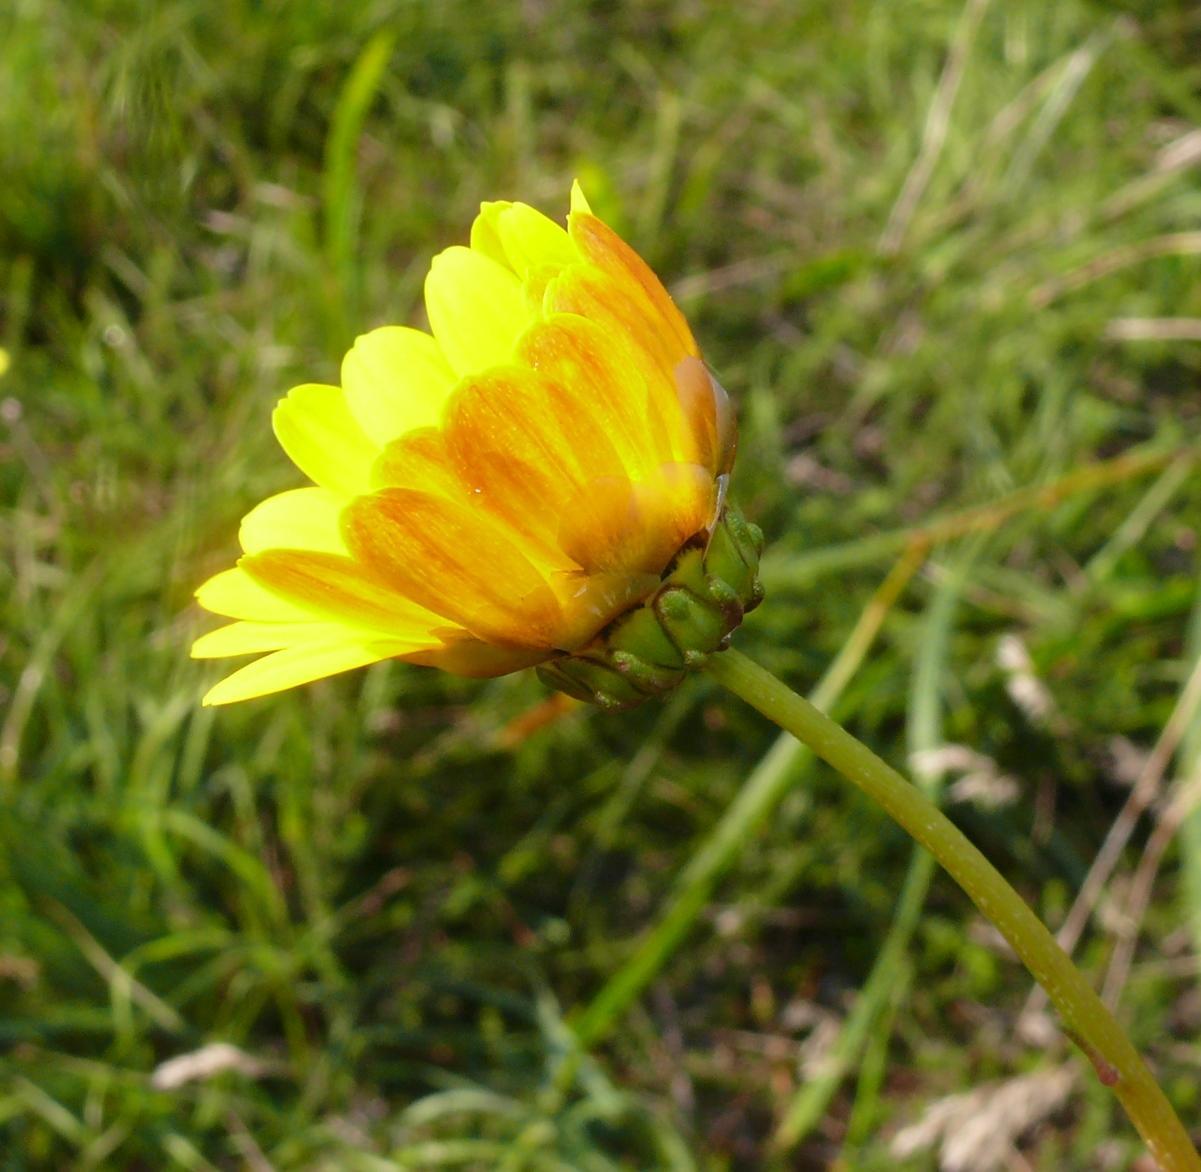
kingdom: Plantae
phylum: Tracheophyta
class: Magnoliopsida
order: Asterales
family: Asteraceae
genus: Ursinia
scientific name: Ursinia paleacea
